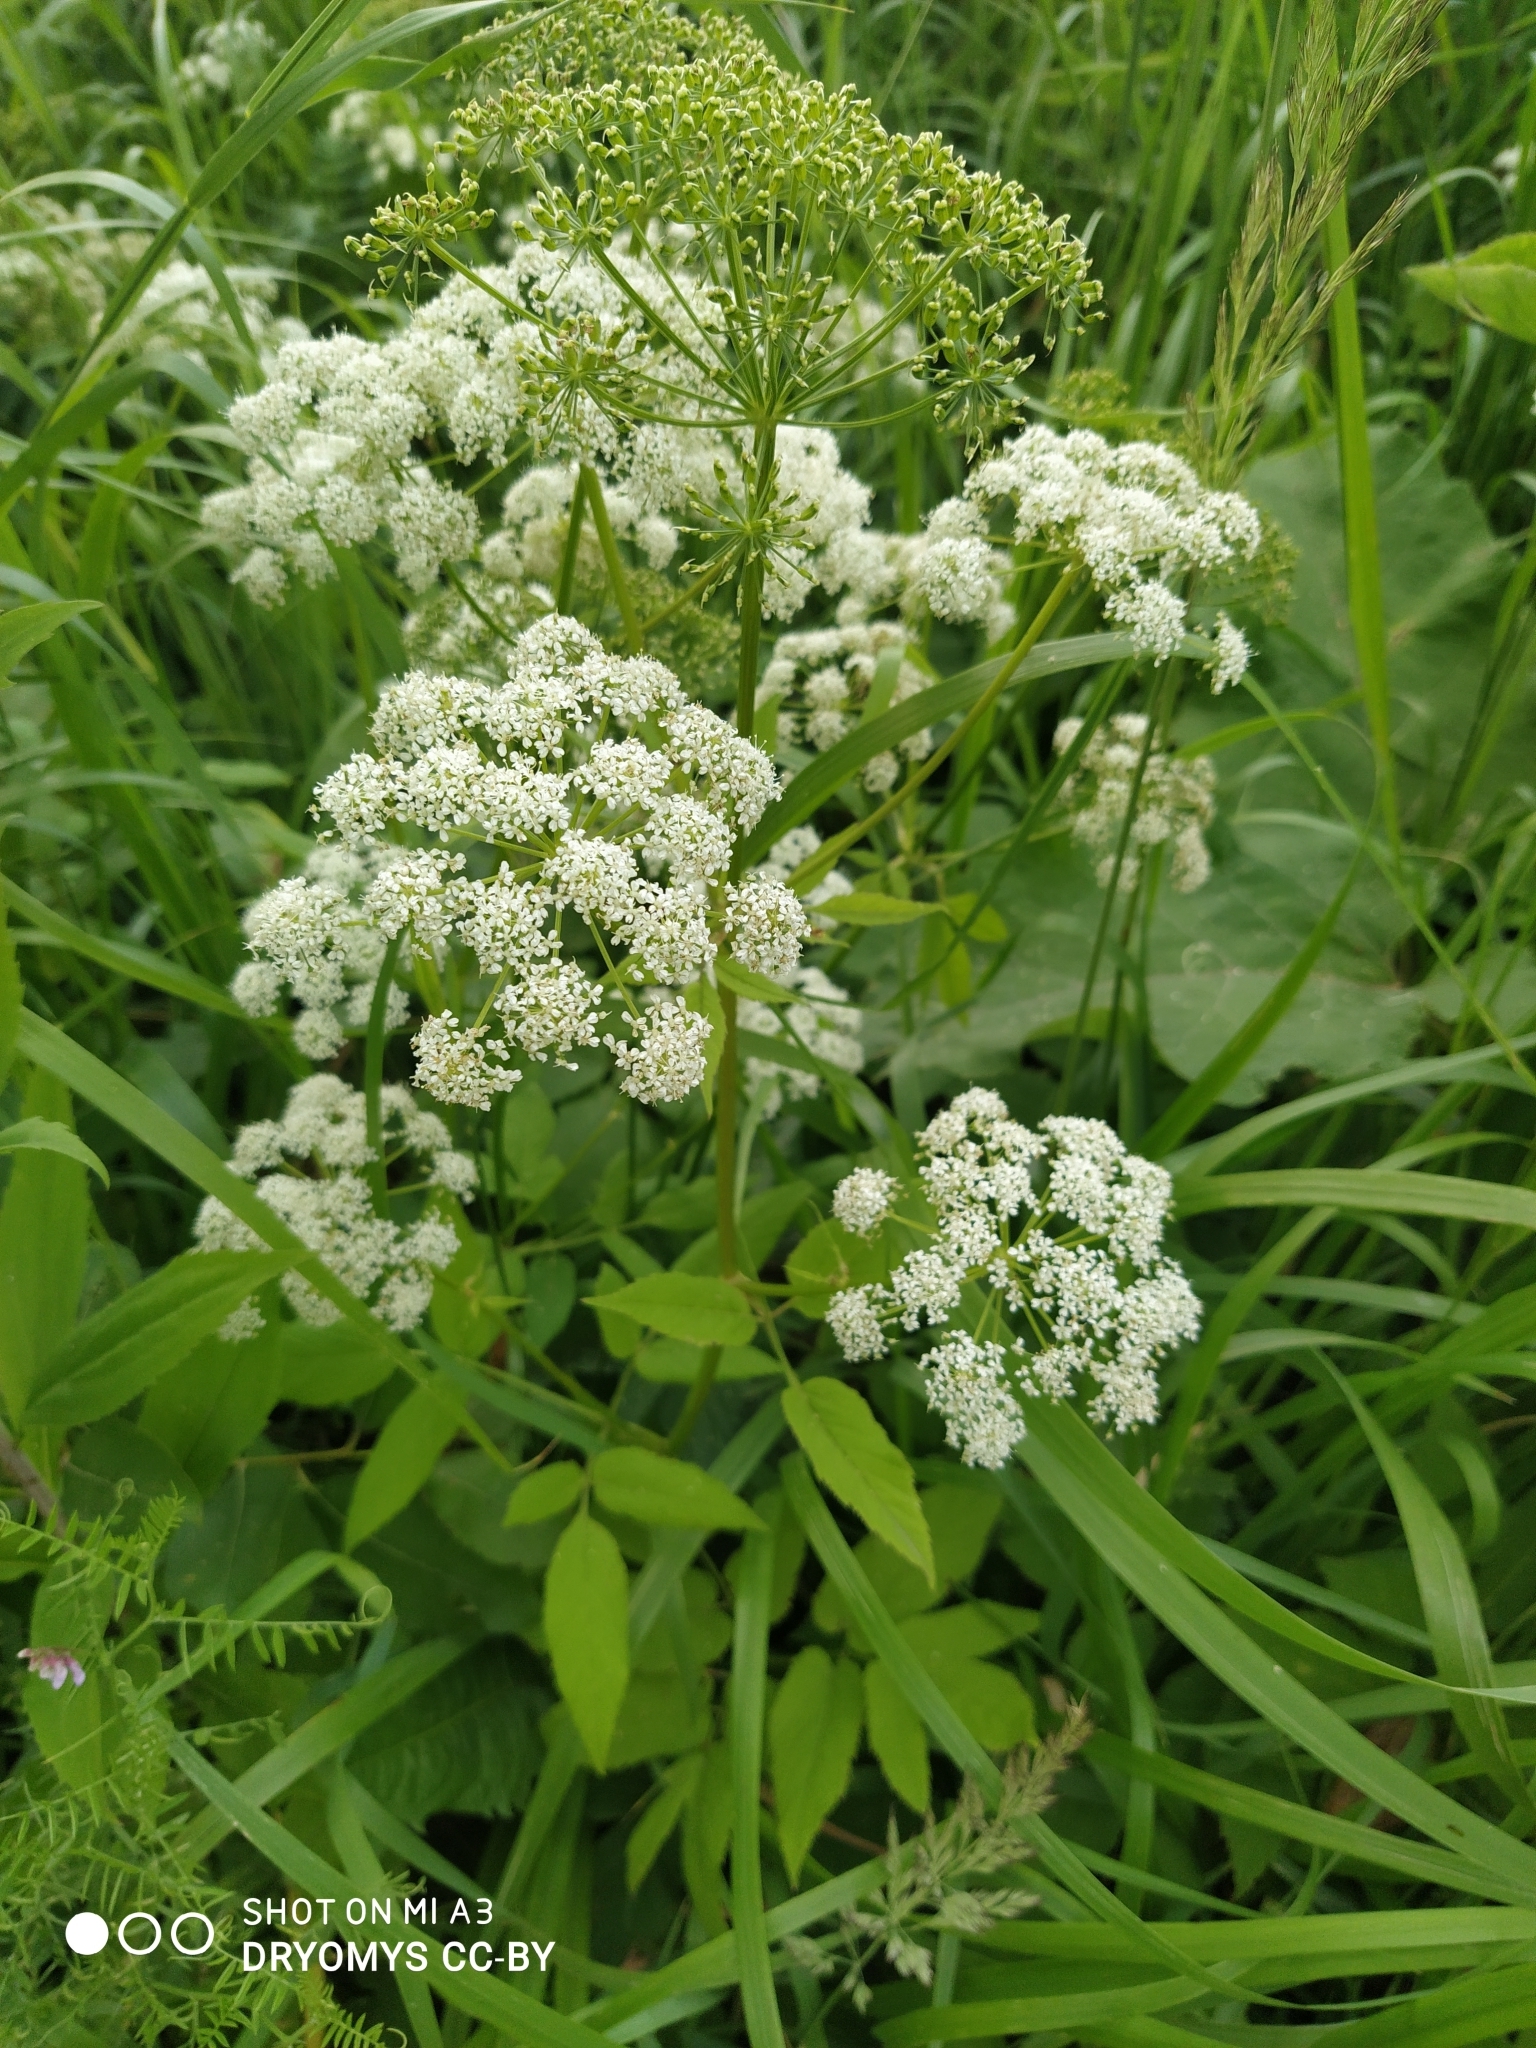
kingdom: Plantae
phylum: Tracheophyta
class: Magnoliopsida
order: Apiales
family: Apiaceae
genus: Aegopodium
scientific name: Aegopodium podagraria
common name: Ground-elder
